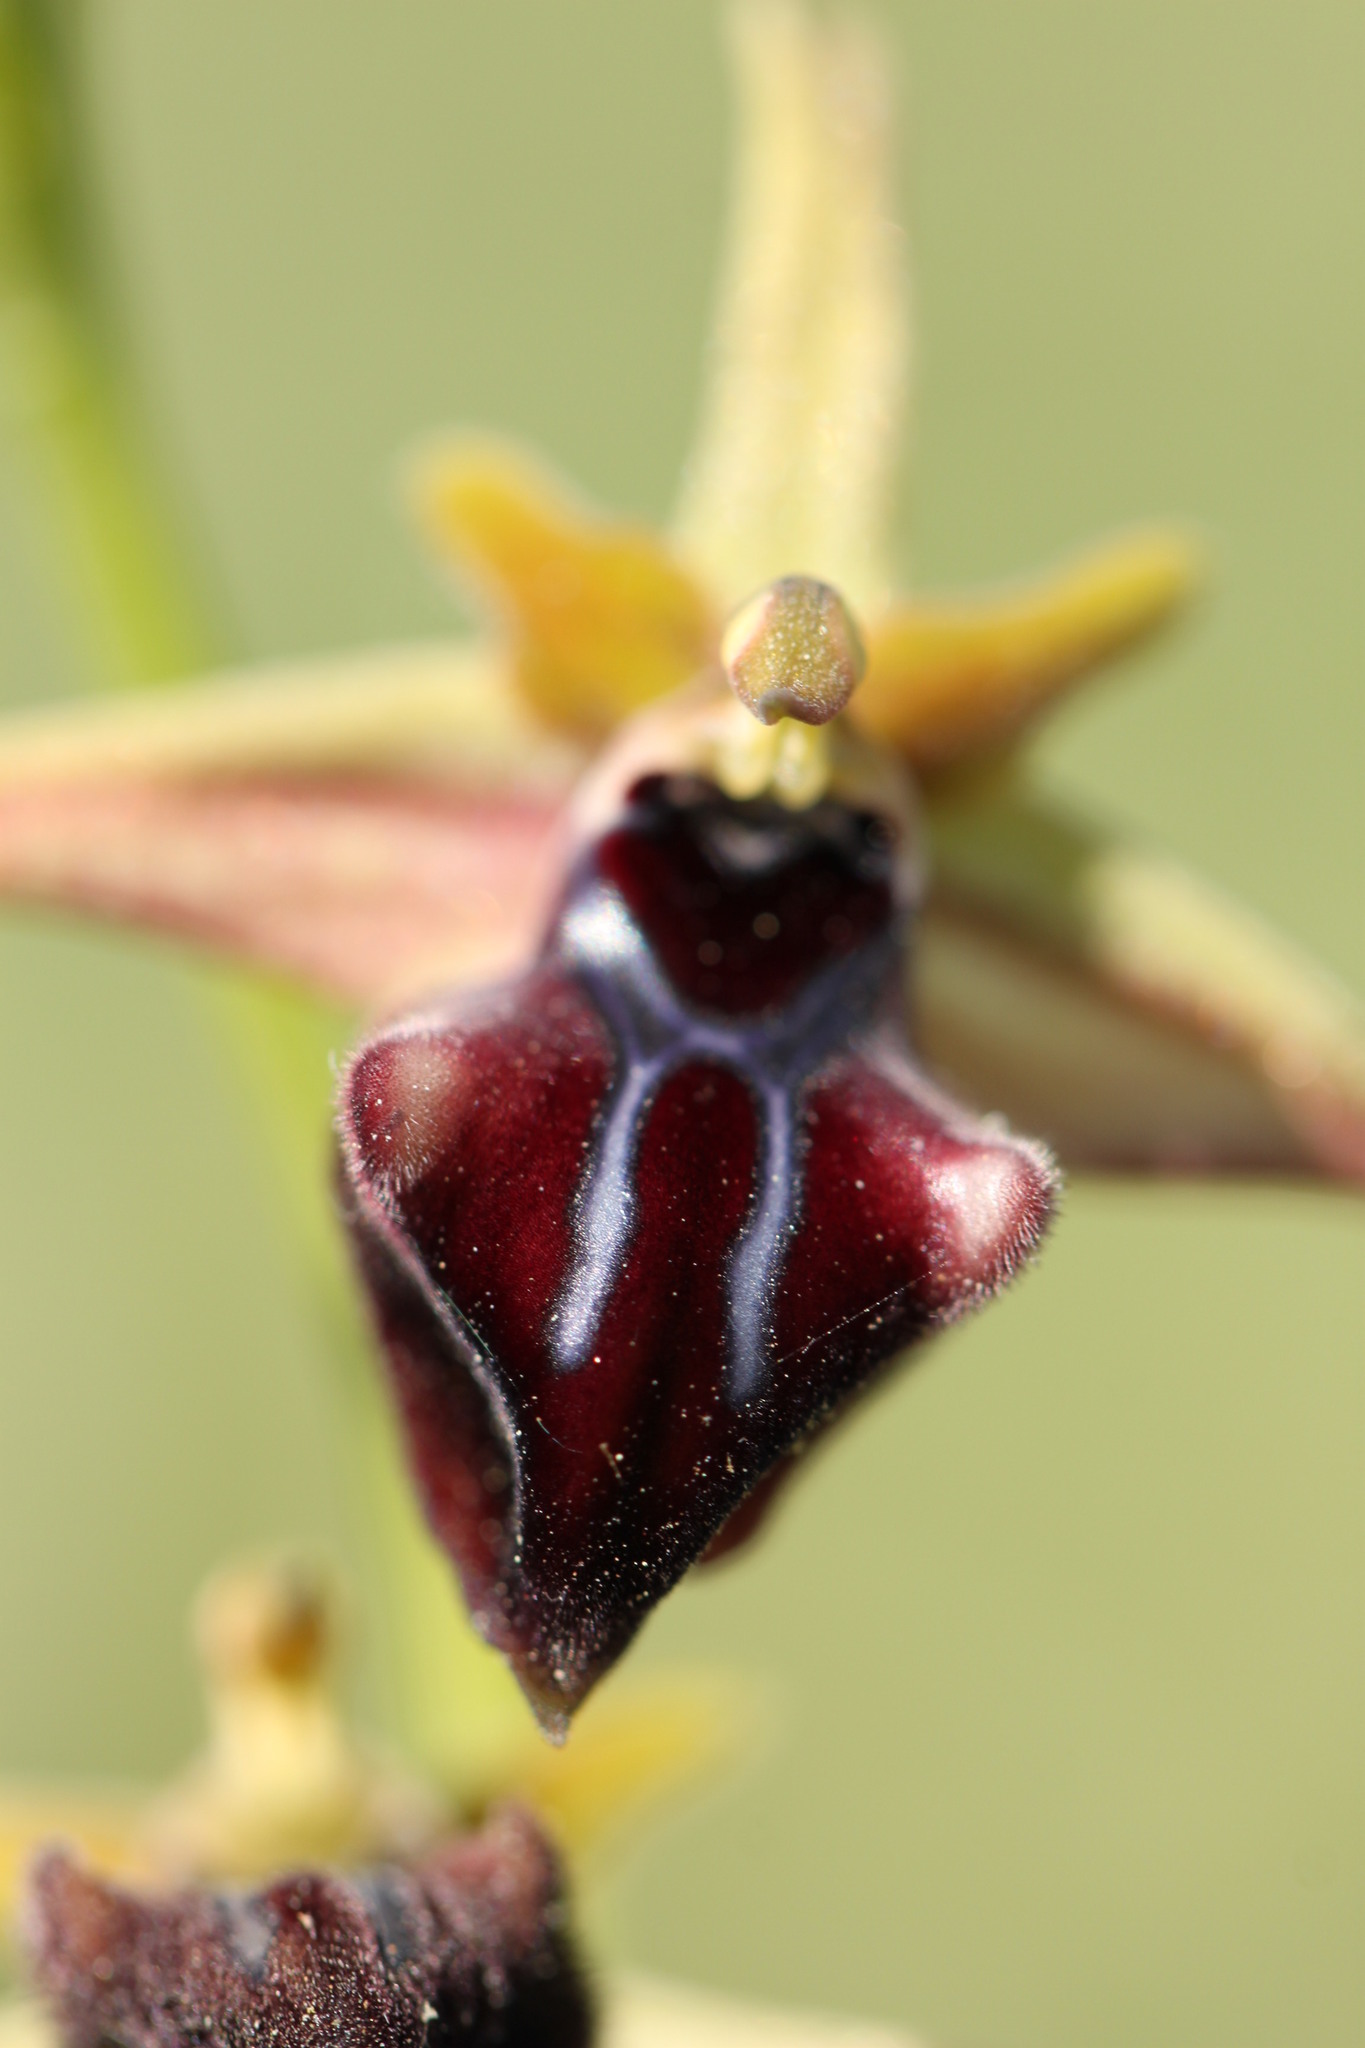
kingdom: Plantae
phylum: Tracheophyta
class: Liliopsida
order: Asparagales
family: Orchidaceae
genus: Ophrys
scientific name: Ophrys sphegodes
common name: Early spider-orchid
